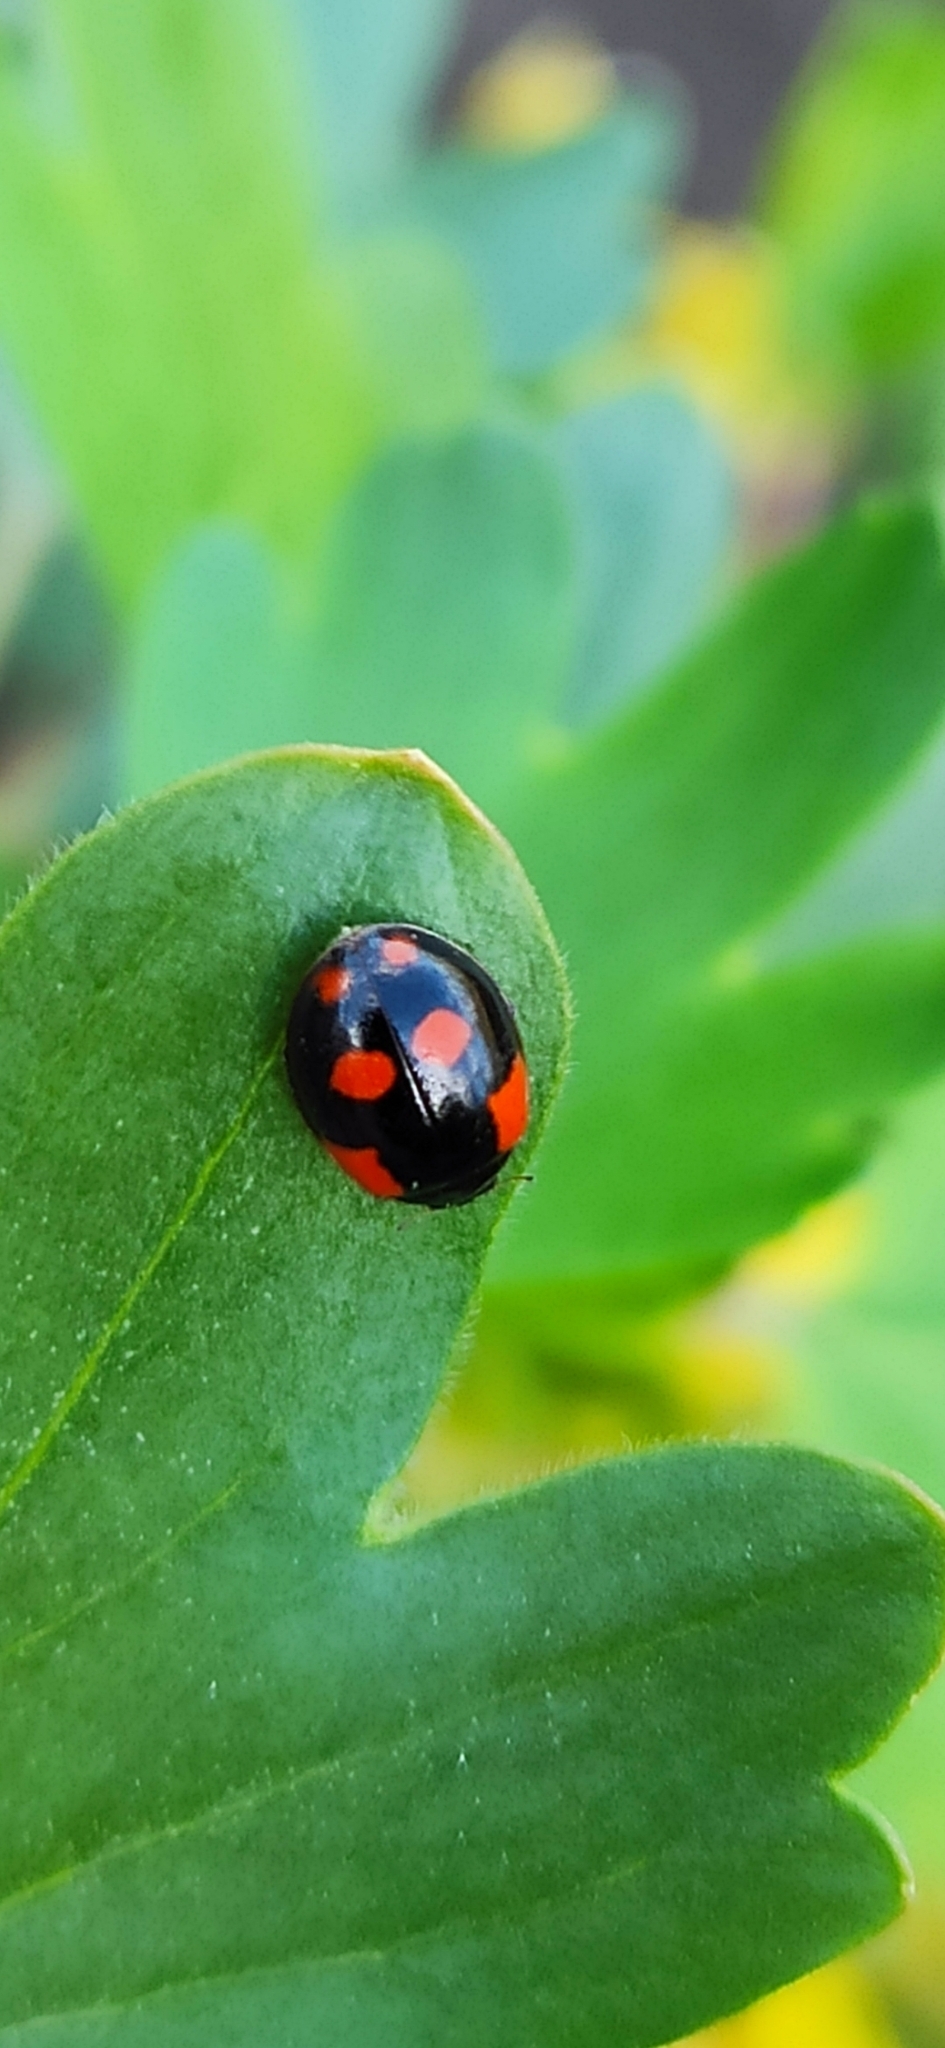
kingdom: Animalia
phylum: Arthropoda
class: Insecta
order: Coleoptera
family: Coccinellidae
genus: Adalia
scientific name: Adalia bipunctata
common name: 2-spot ladybird
